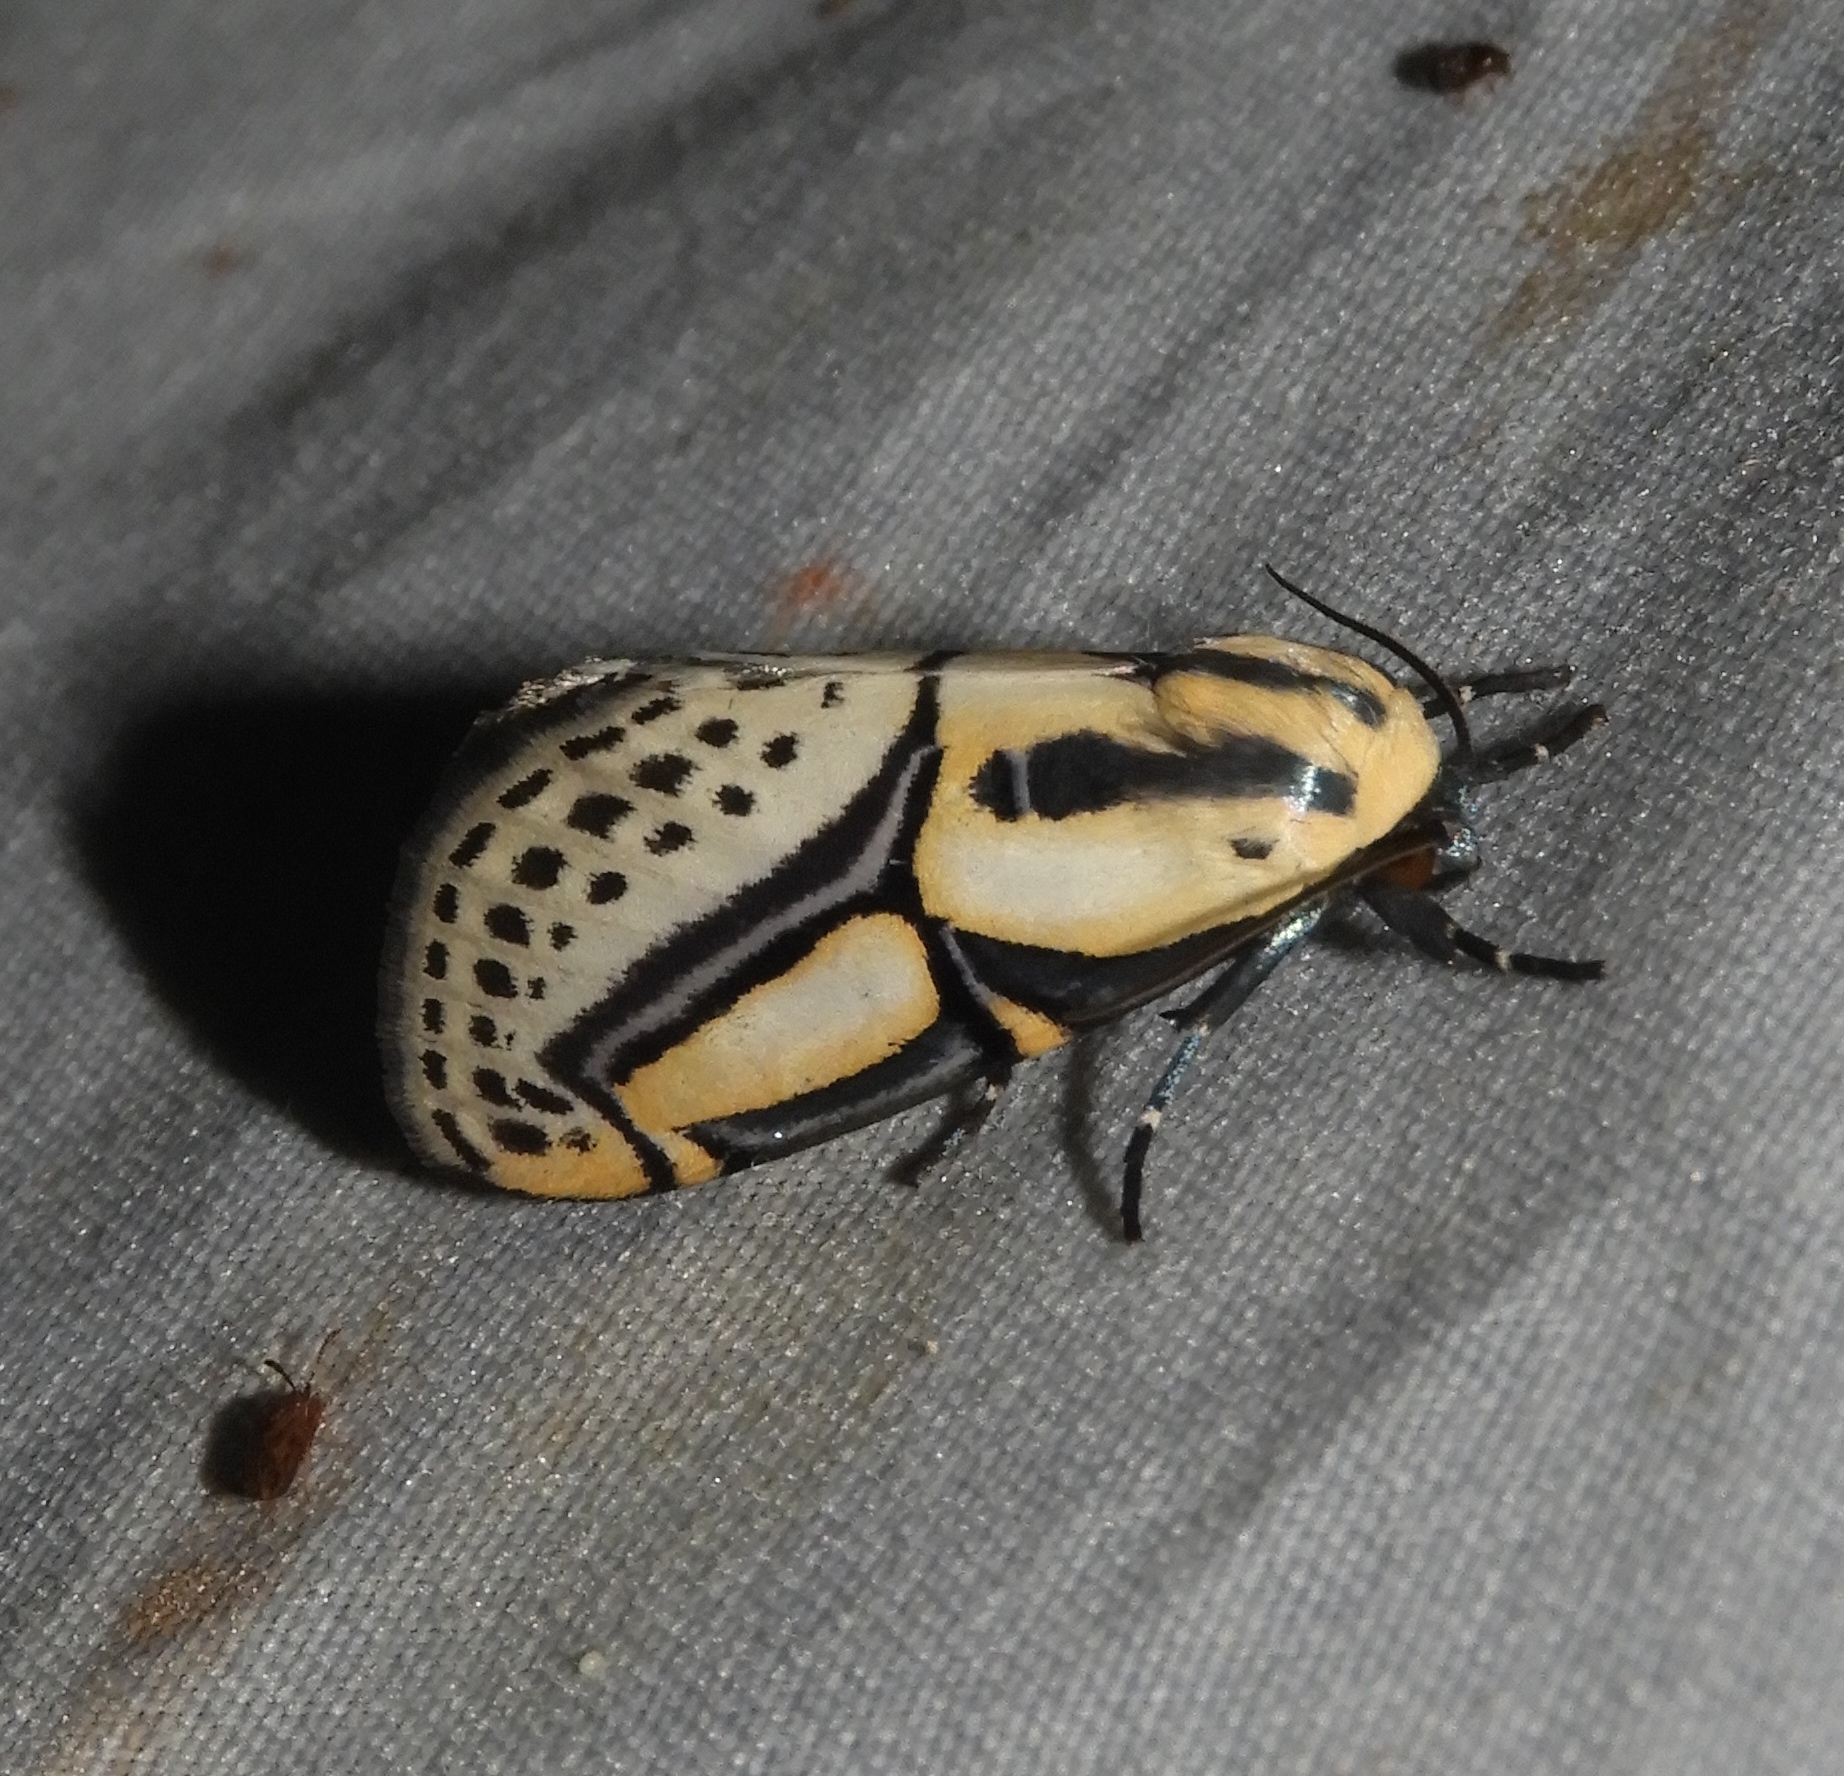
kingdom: Animalia
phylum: Arthropoda
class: Insecta
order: Lepidoptera
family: Erebidae
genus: Diphthera
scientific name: Diphthera festiva
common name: Hieroglyphic moth
